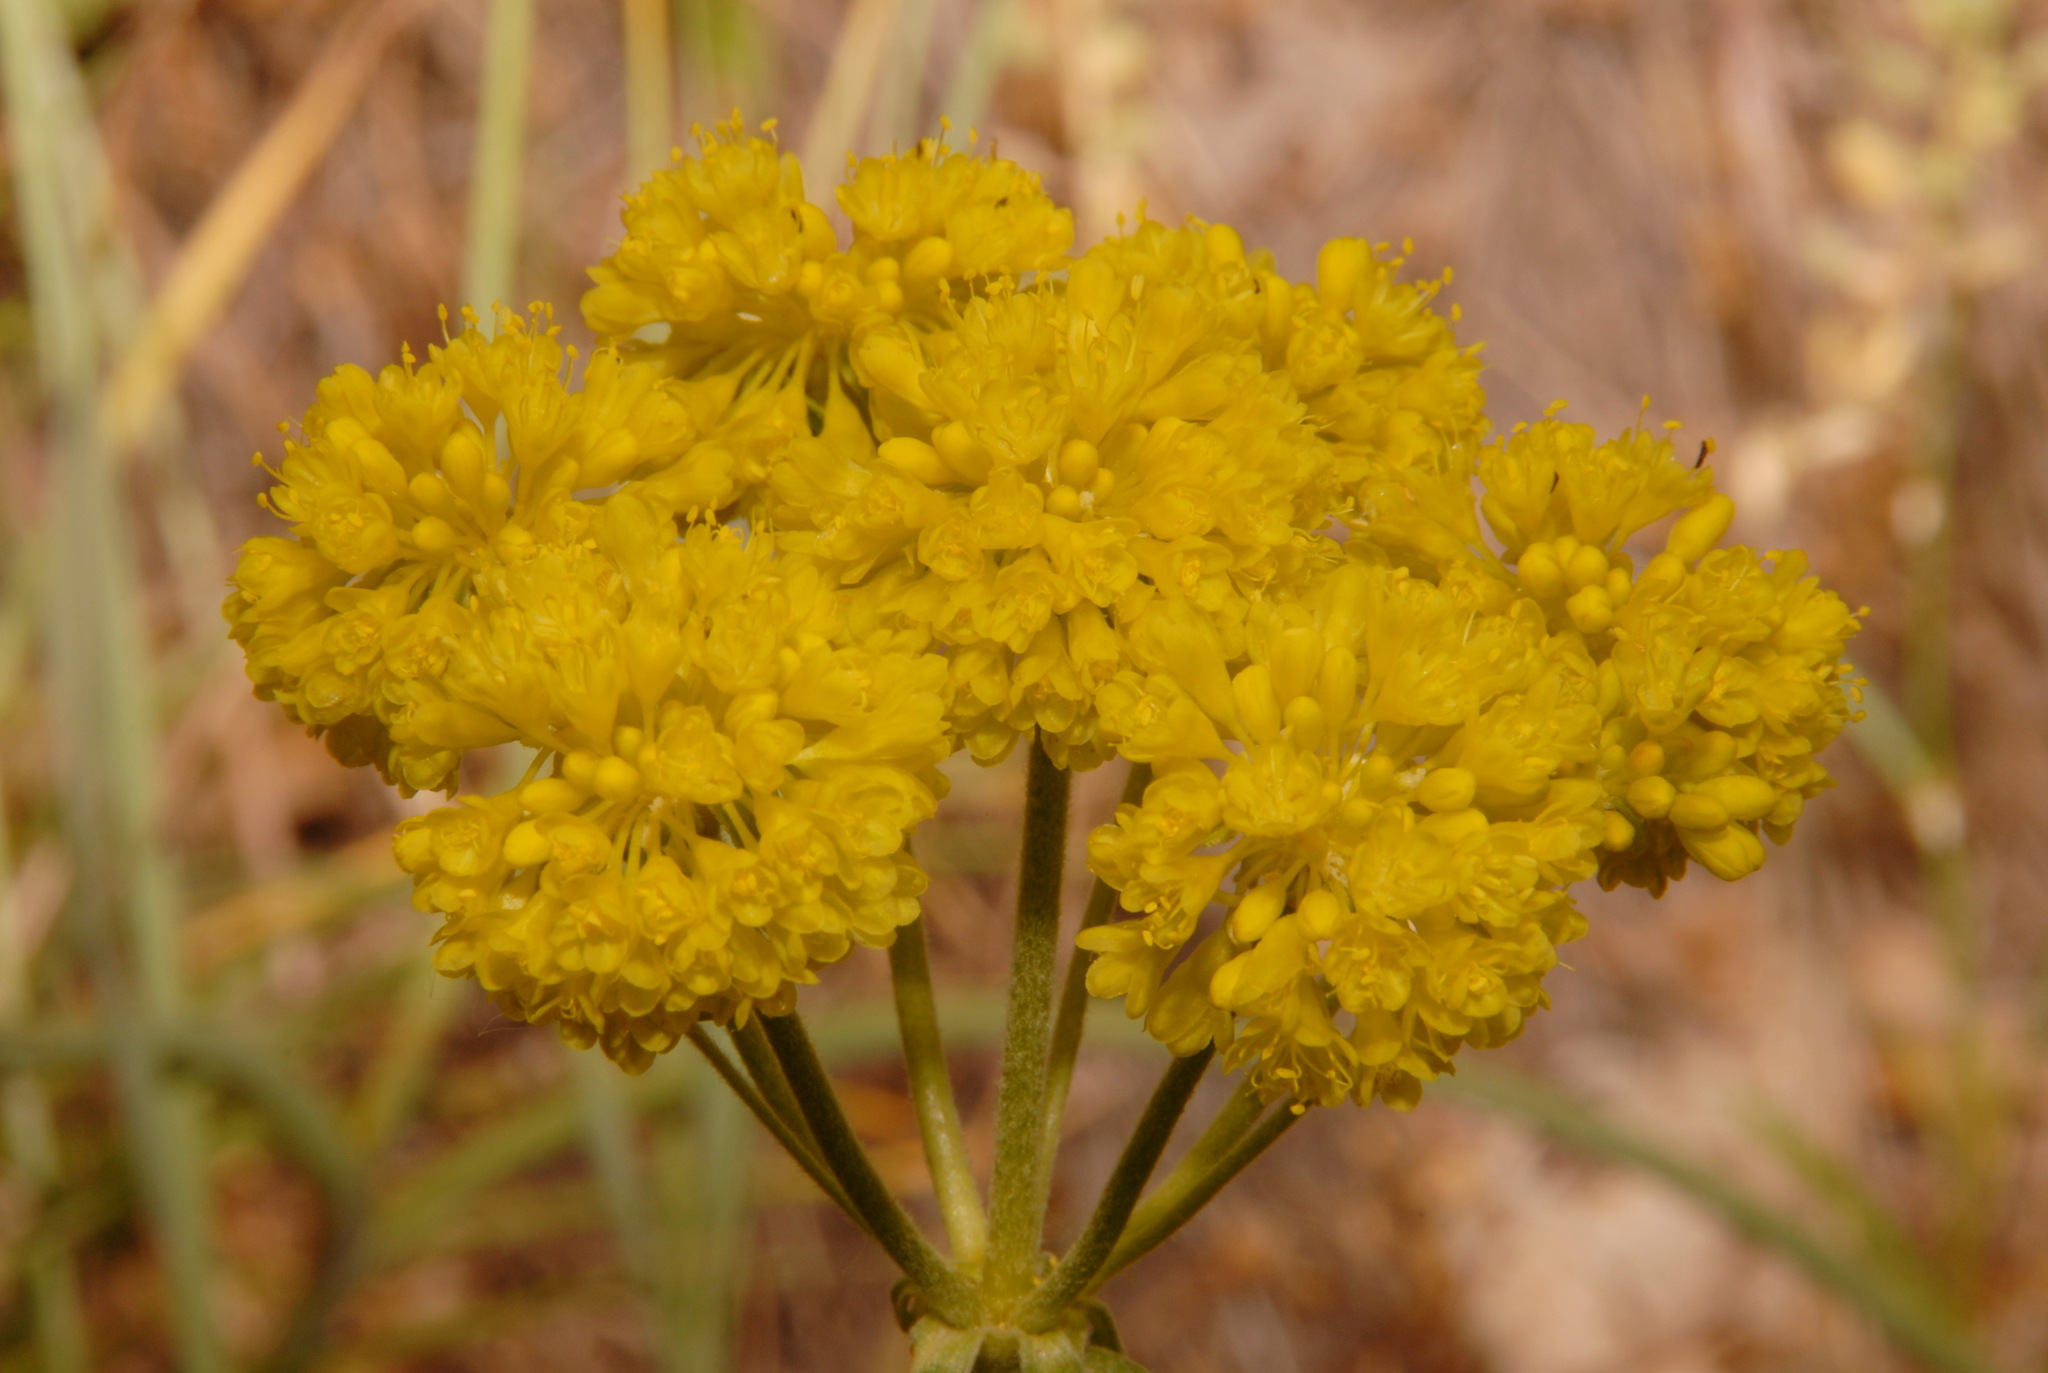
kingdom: Plantae
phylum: Tracheophyta
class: Magnoliopsida
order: Caryophyllales
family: Polygonaceae
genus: Eriogonum
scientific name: Eriogonum umbellatum
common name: Sulfur-buckwheat
